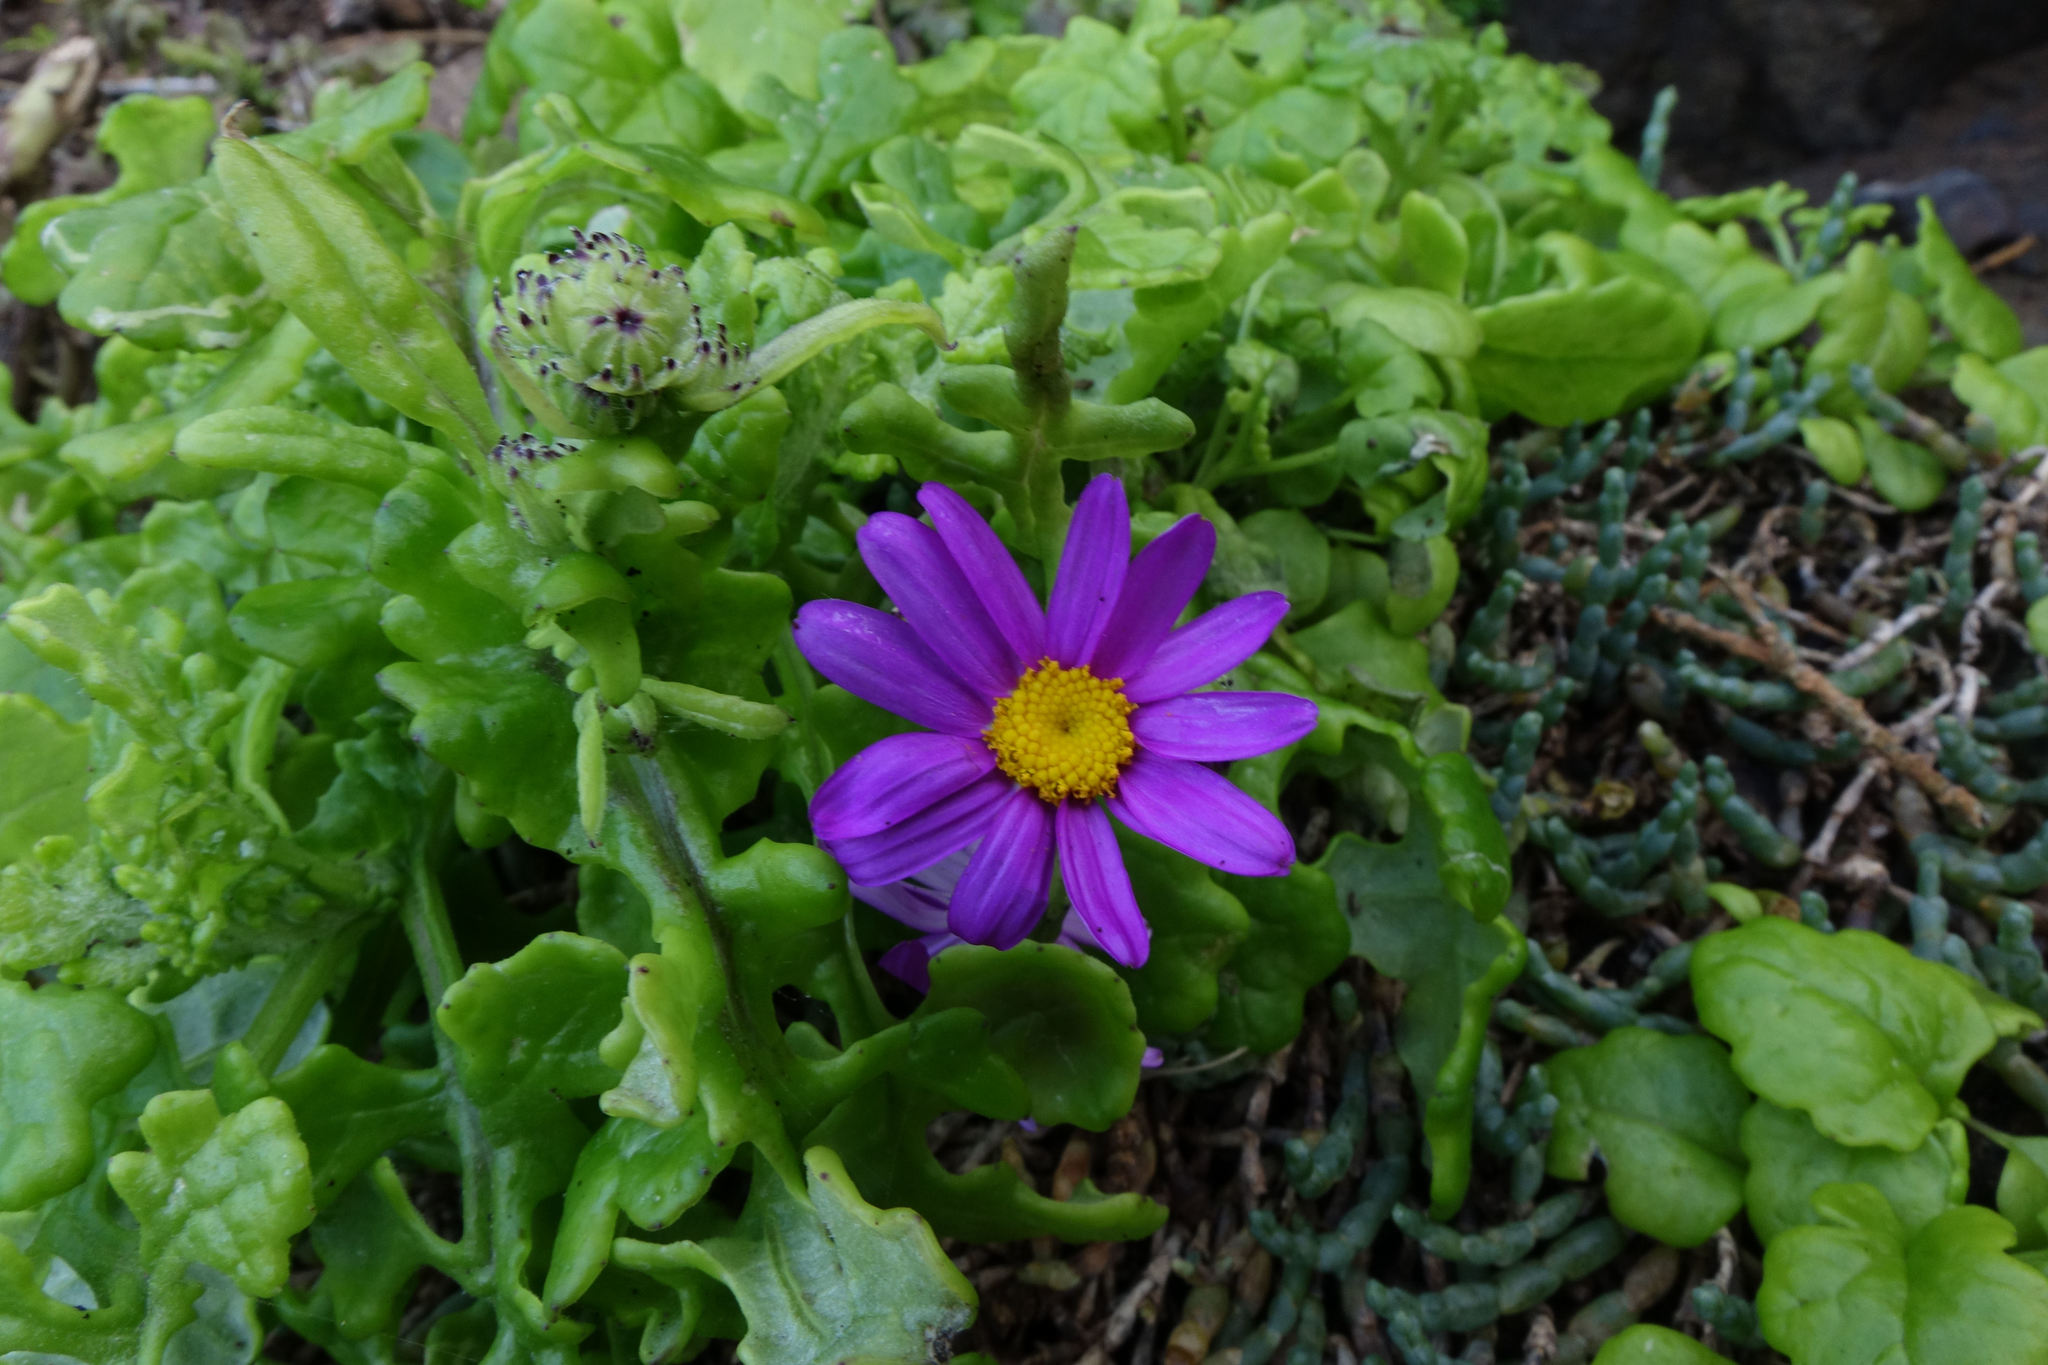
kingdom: Plantae
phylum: Tracheophyta
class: Magnoliopsida
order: Asterales
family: Asteraceae
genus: Senecio
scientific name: Senecio elegans
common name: Purple groundsel
